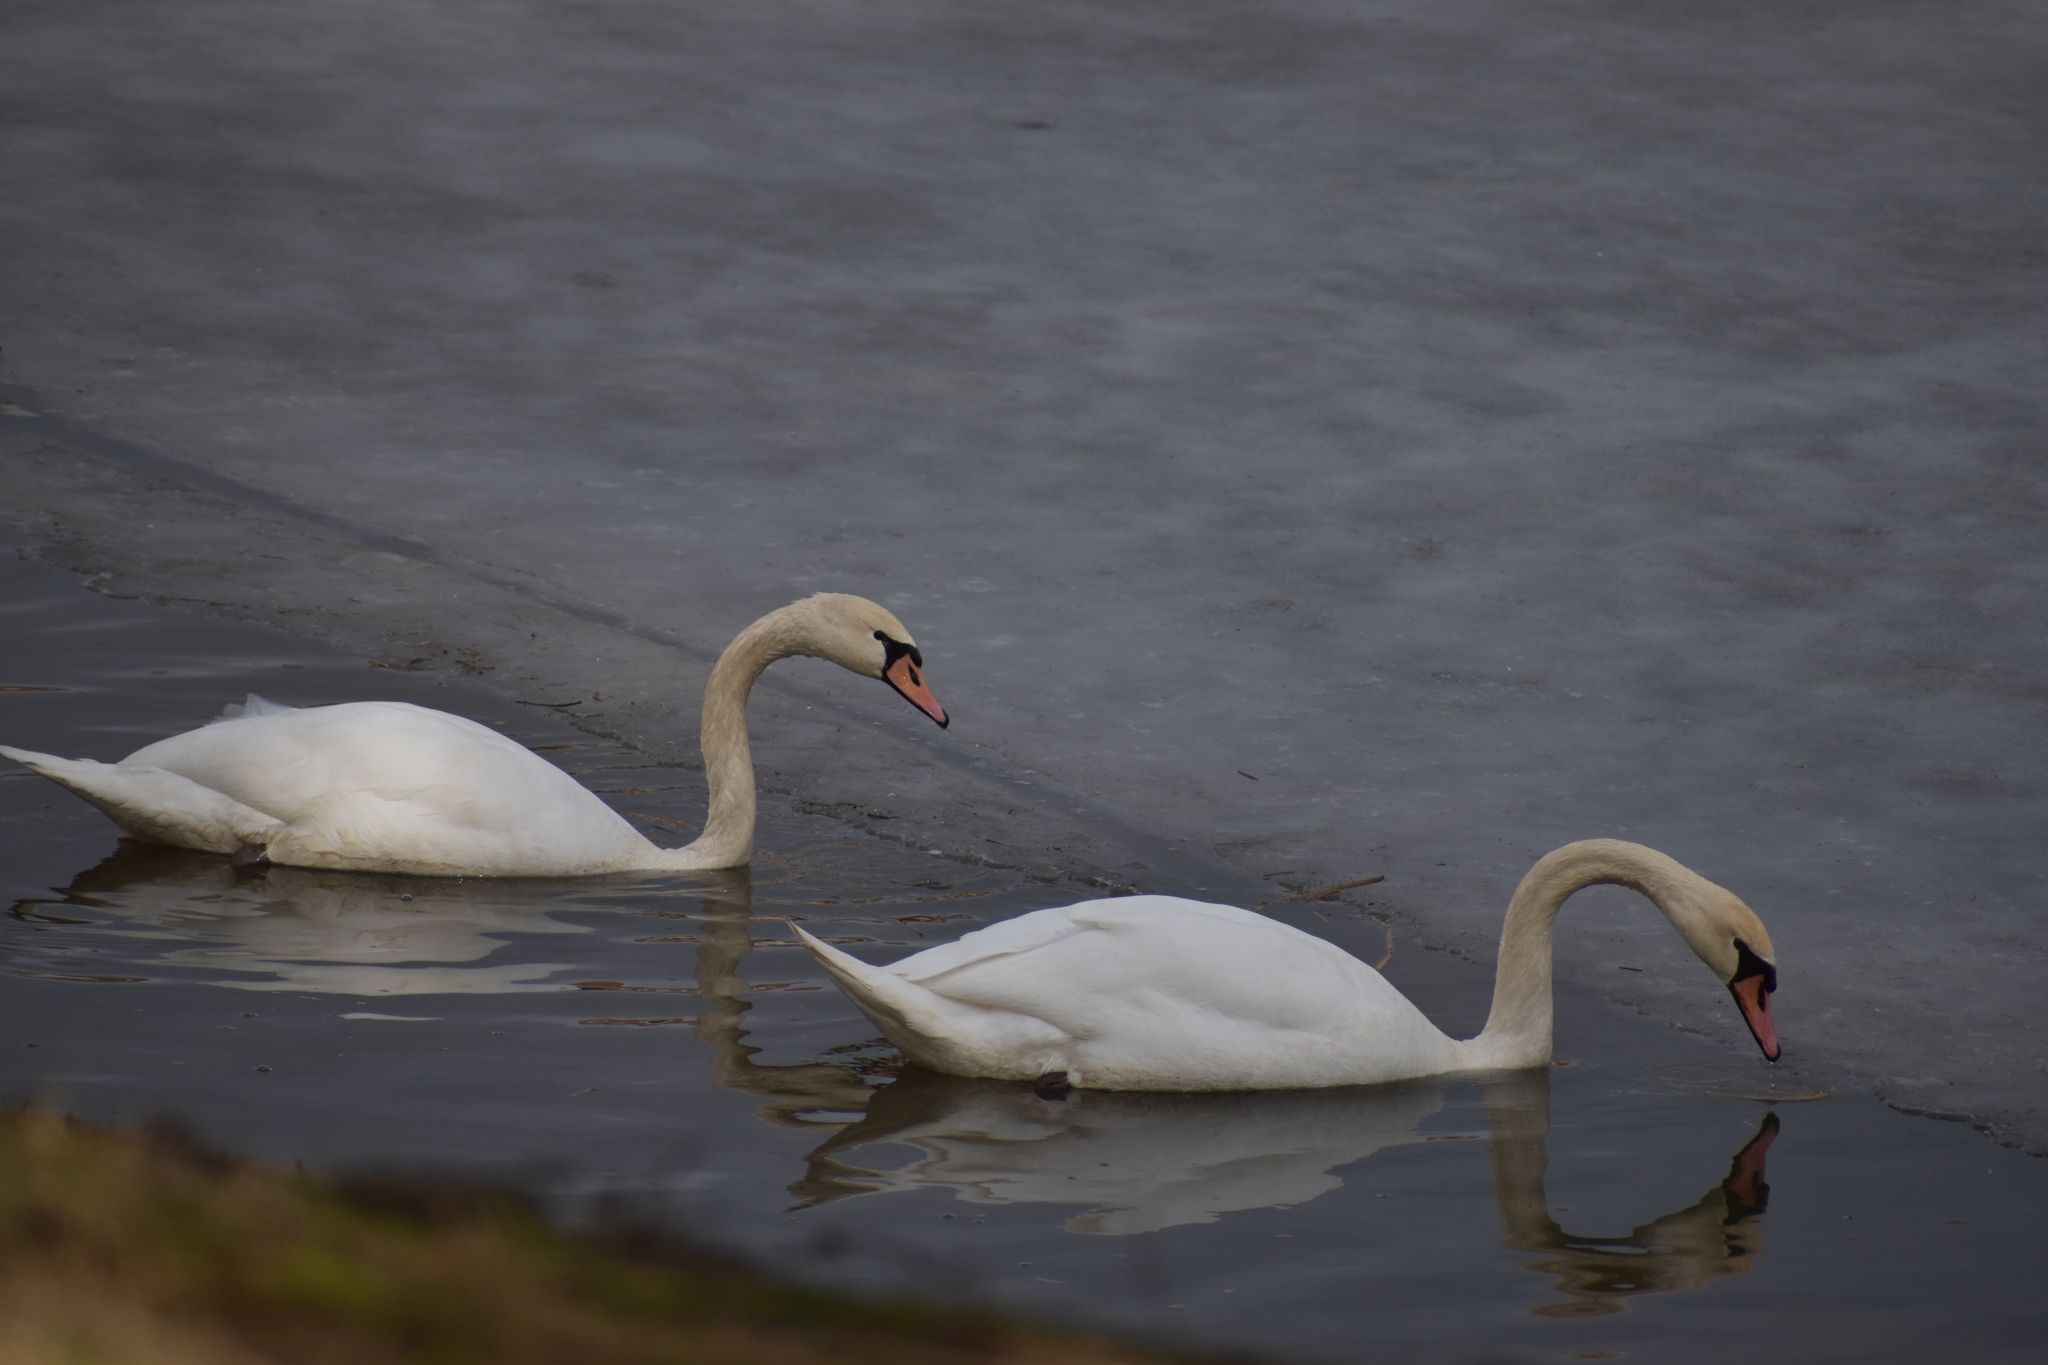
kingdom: Animalia
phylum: Chordata
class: Aves
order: Anseriformes
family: Anatidae
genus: Cygnus
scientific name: Cygnus olor
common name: Mute swan
